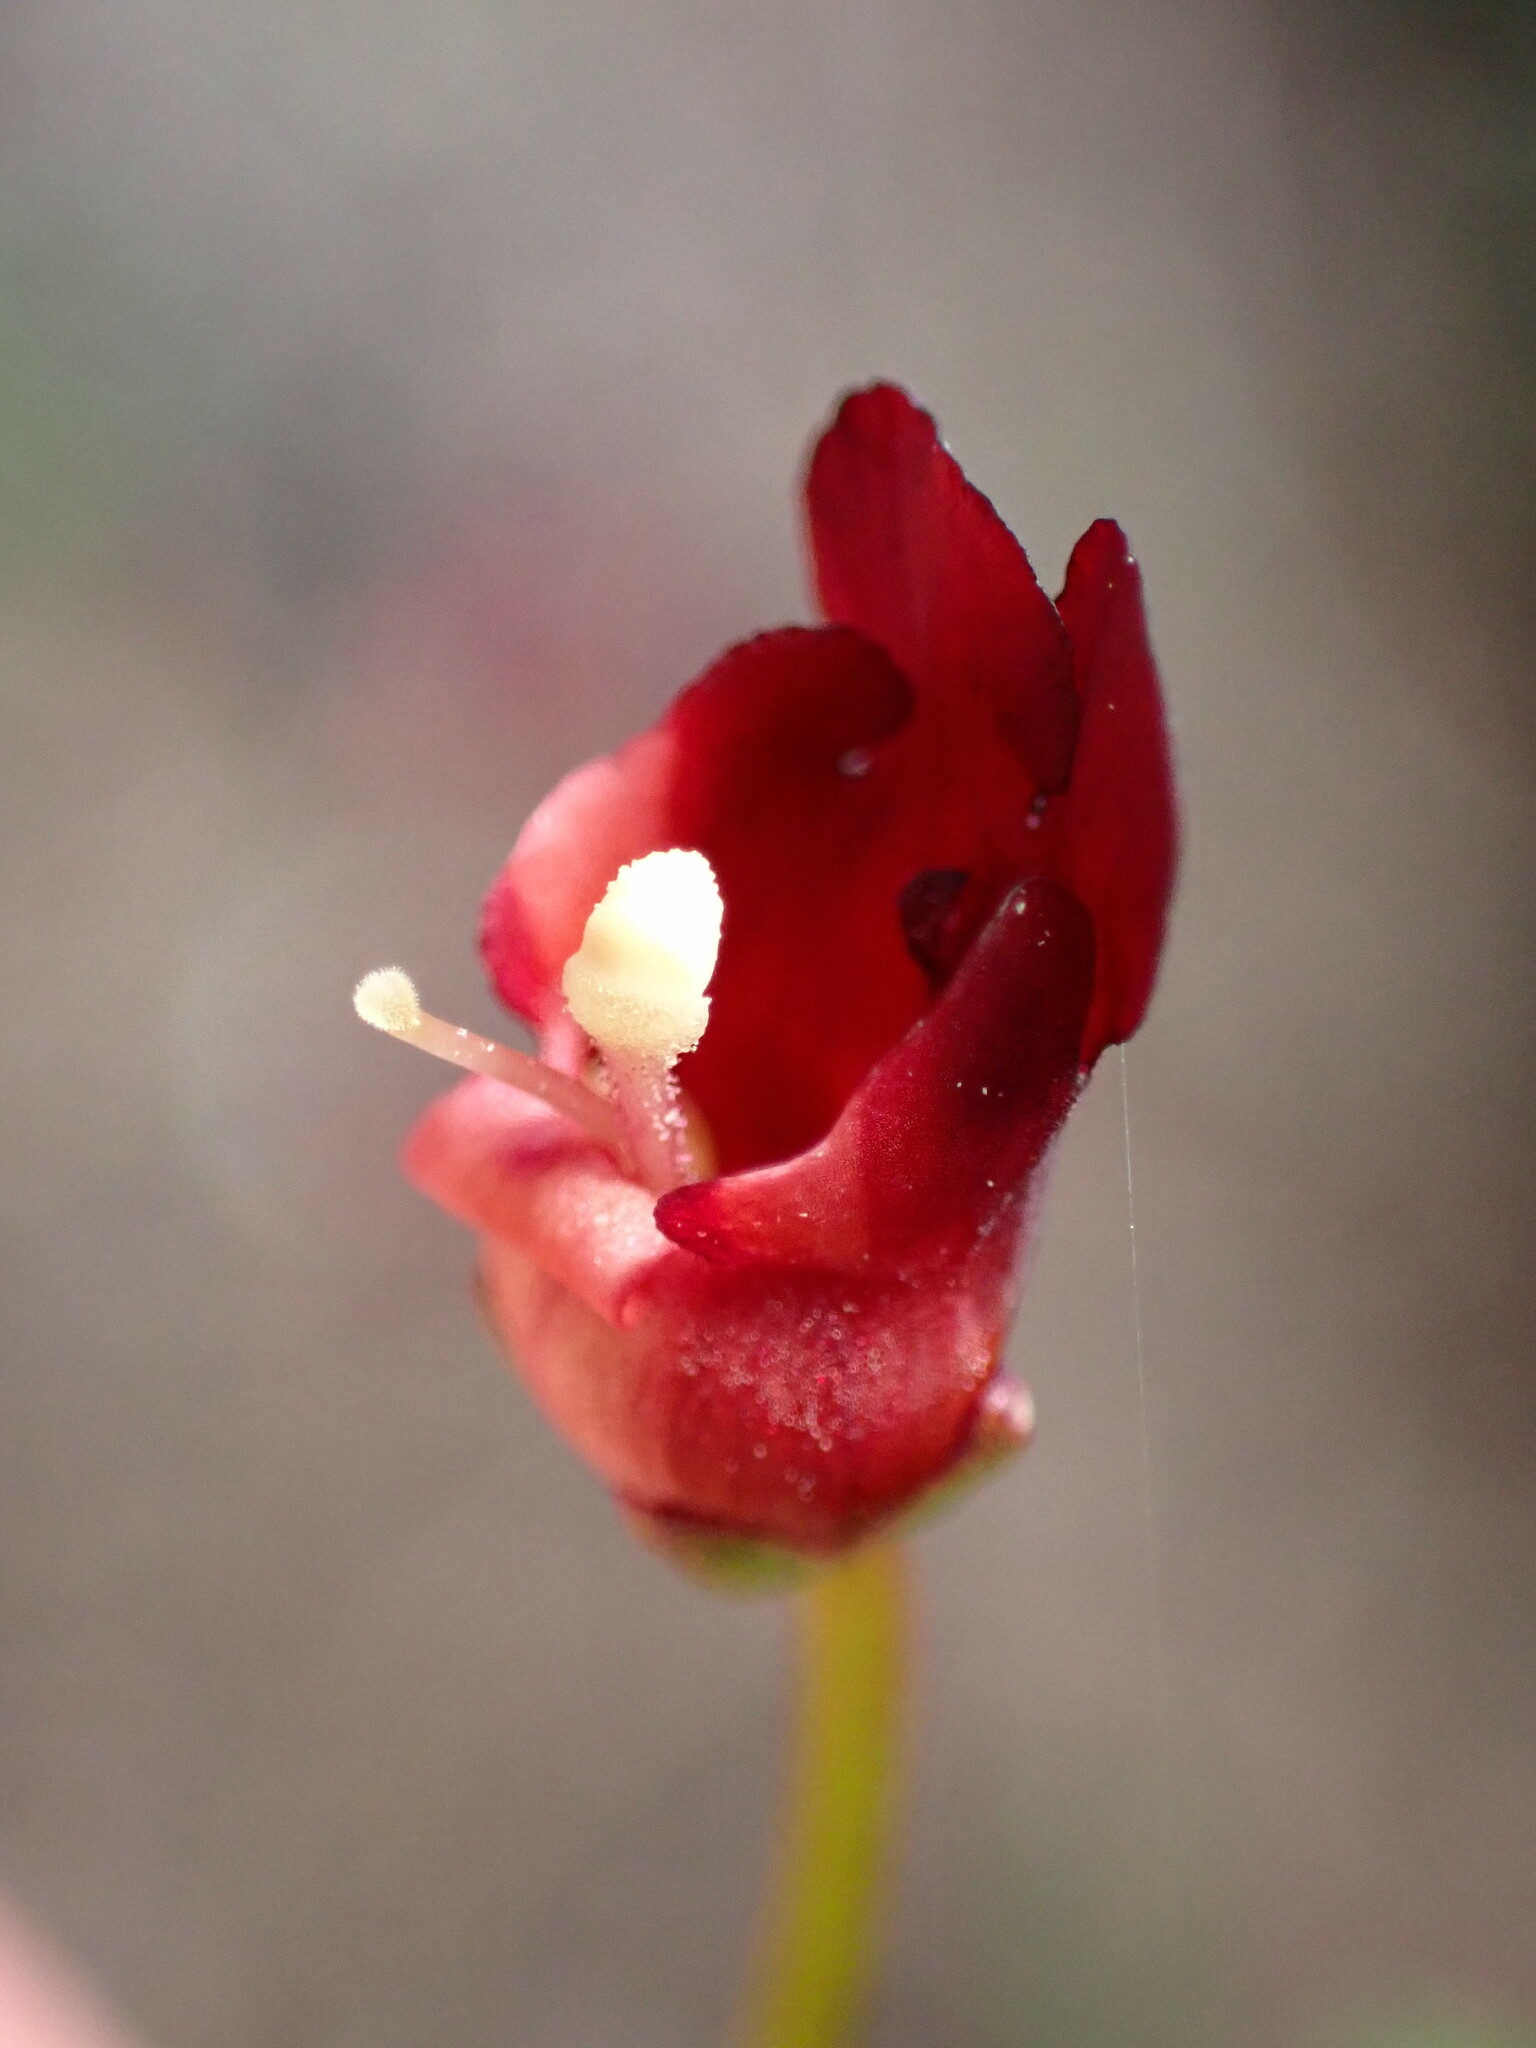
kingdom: Plantae
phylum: Tracheophyta
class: Magnoliopsida
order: Lamiales
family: Scrophulariaceae
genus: Scrophularia
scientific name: Scrophularia californica
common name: California figwort
